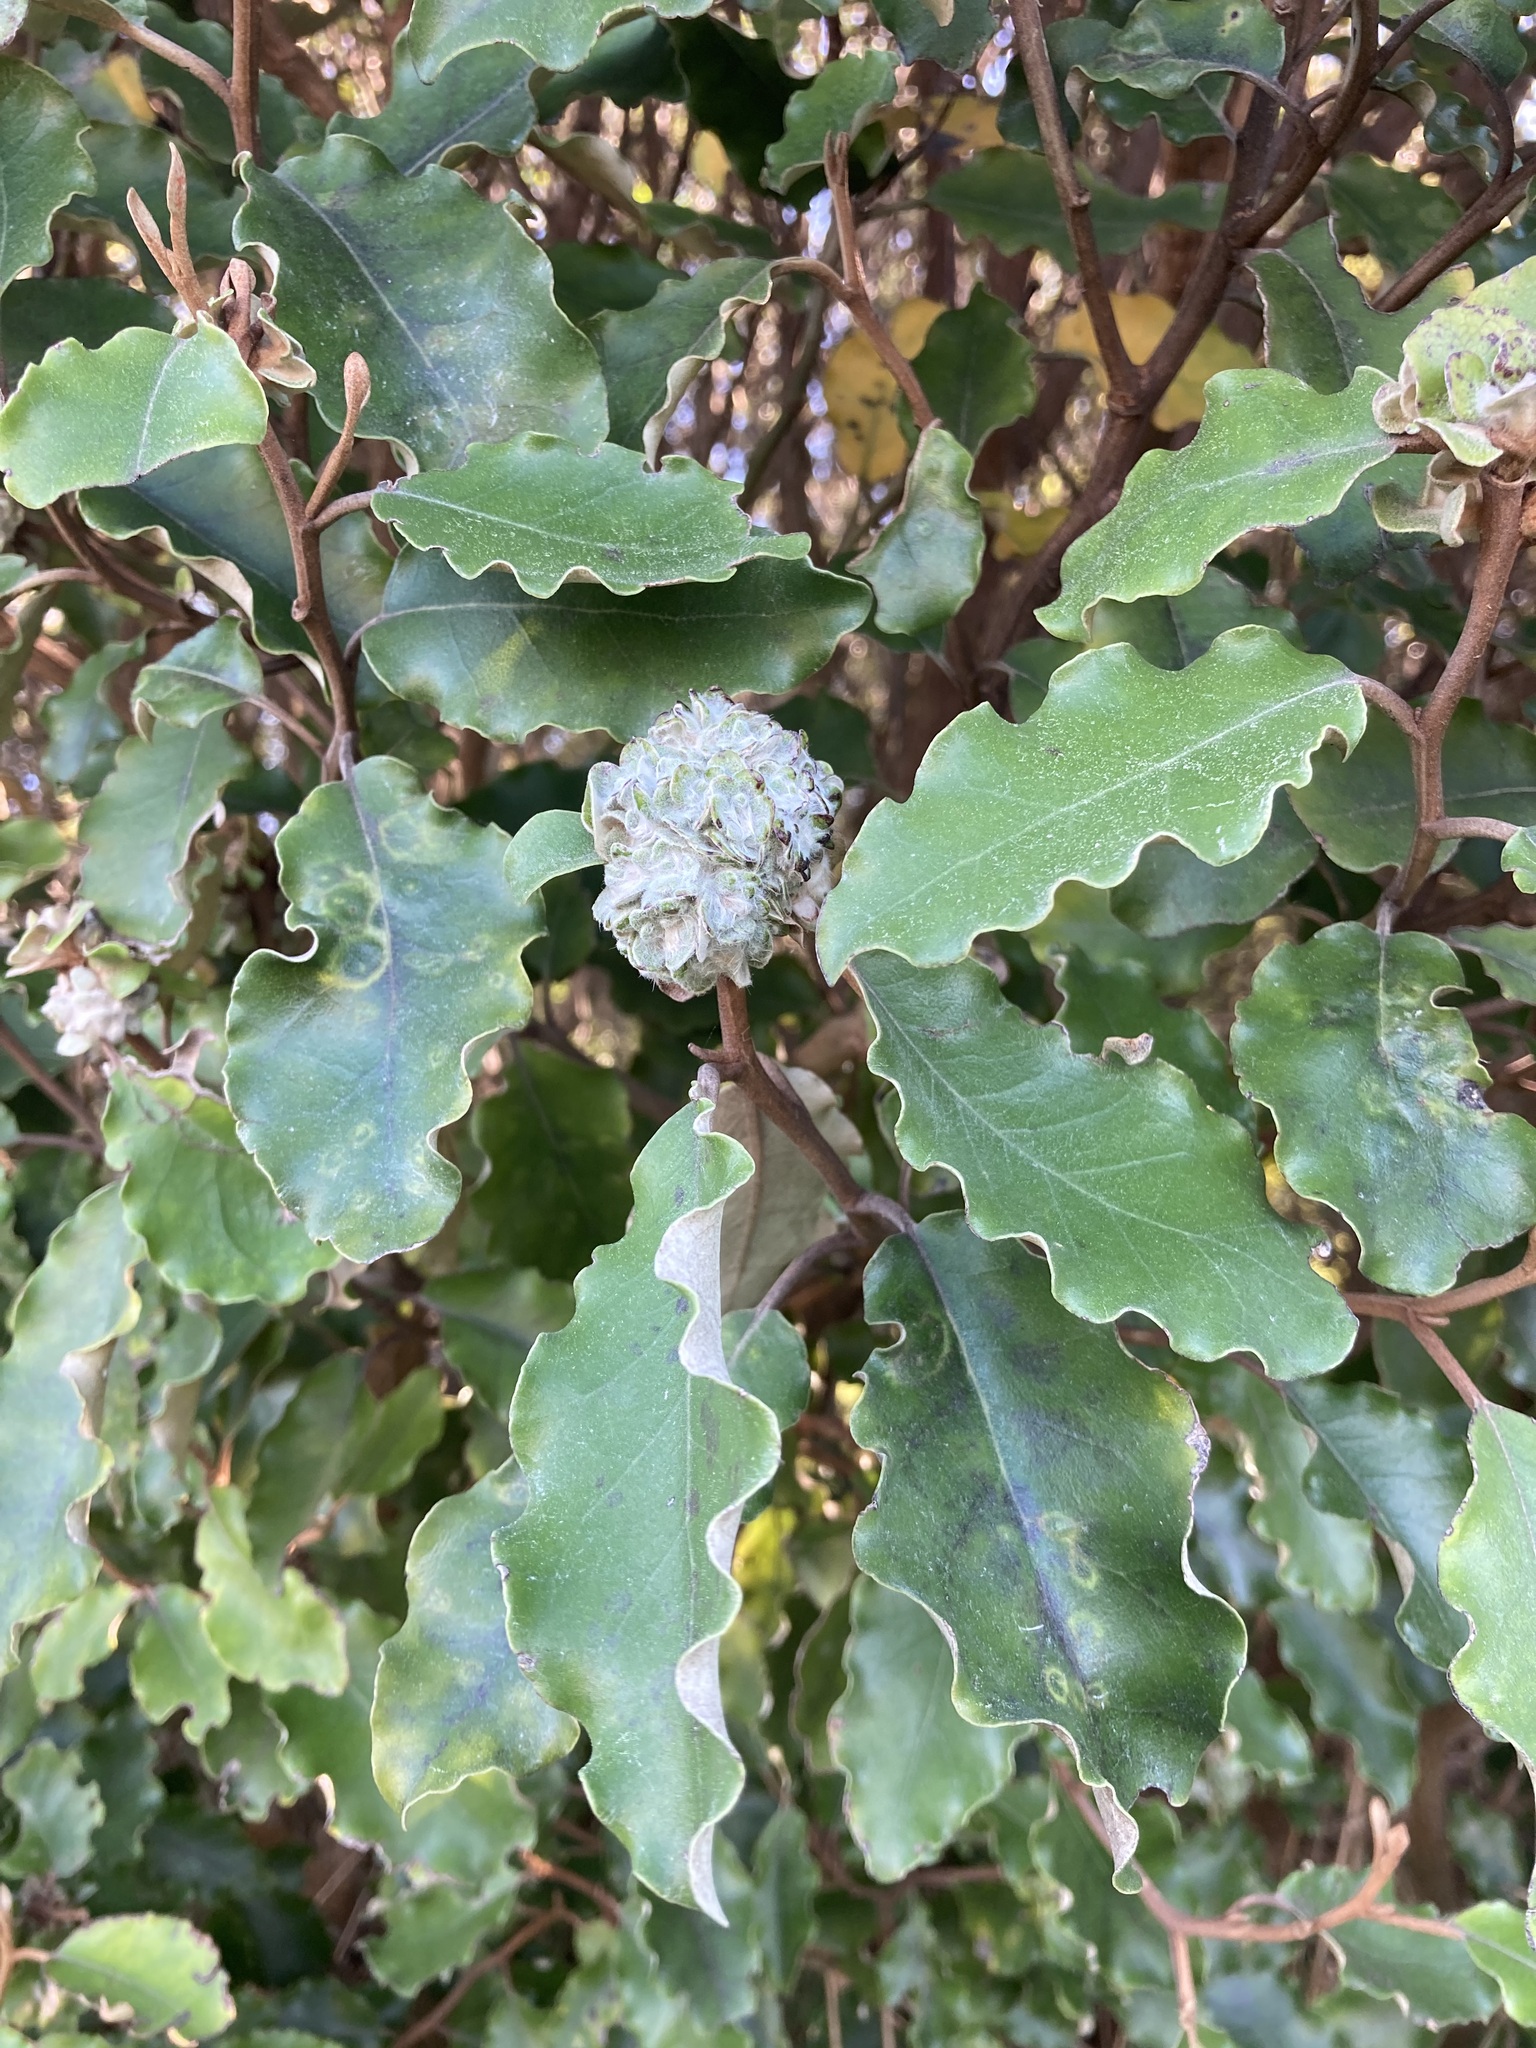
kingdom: Plantae
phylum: Tracheophyta
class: Magnoliopsida
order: Asterales
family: Asteraceae
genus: Olearia
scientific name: Olearia paniculata
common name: Akiraho
